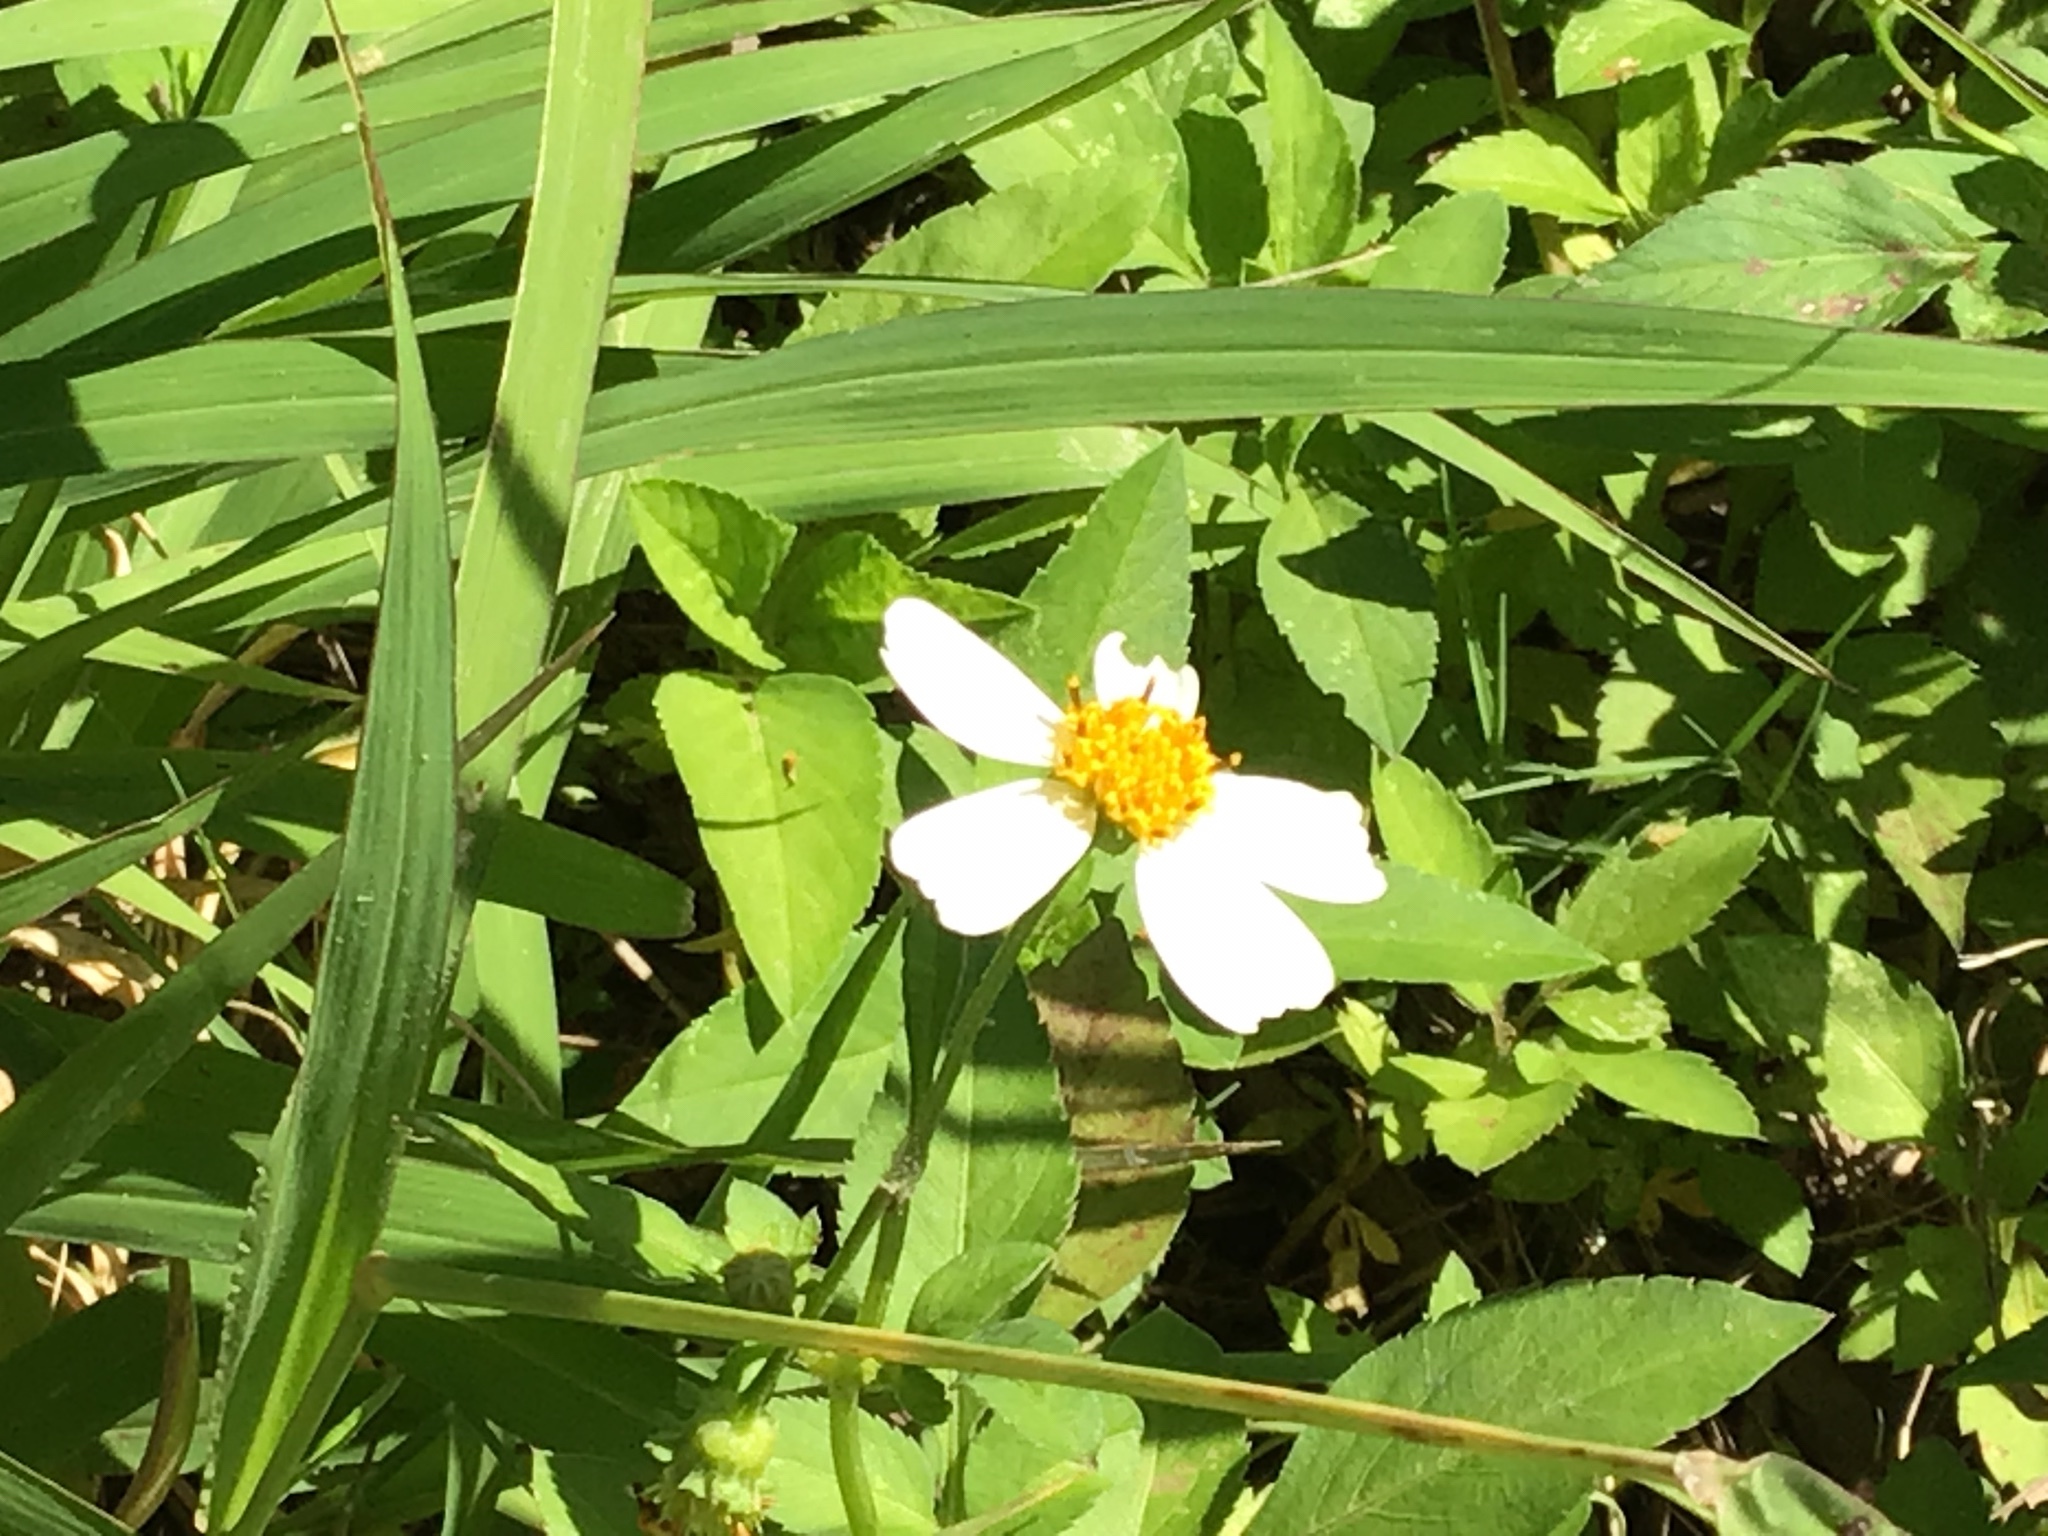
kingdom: Plantae
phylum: Tracheophyta
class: Magnoliopsida
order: Asterales
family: Asteraceae
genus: Bidens
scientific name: Bidens alba
